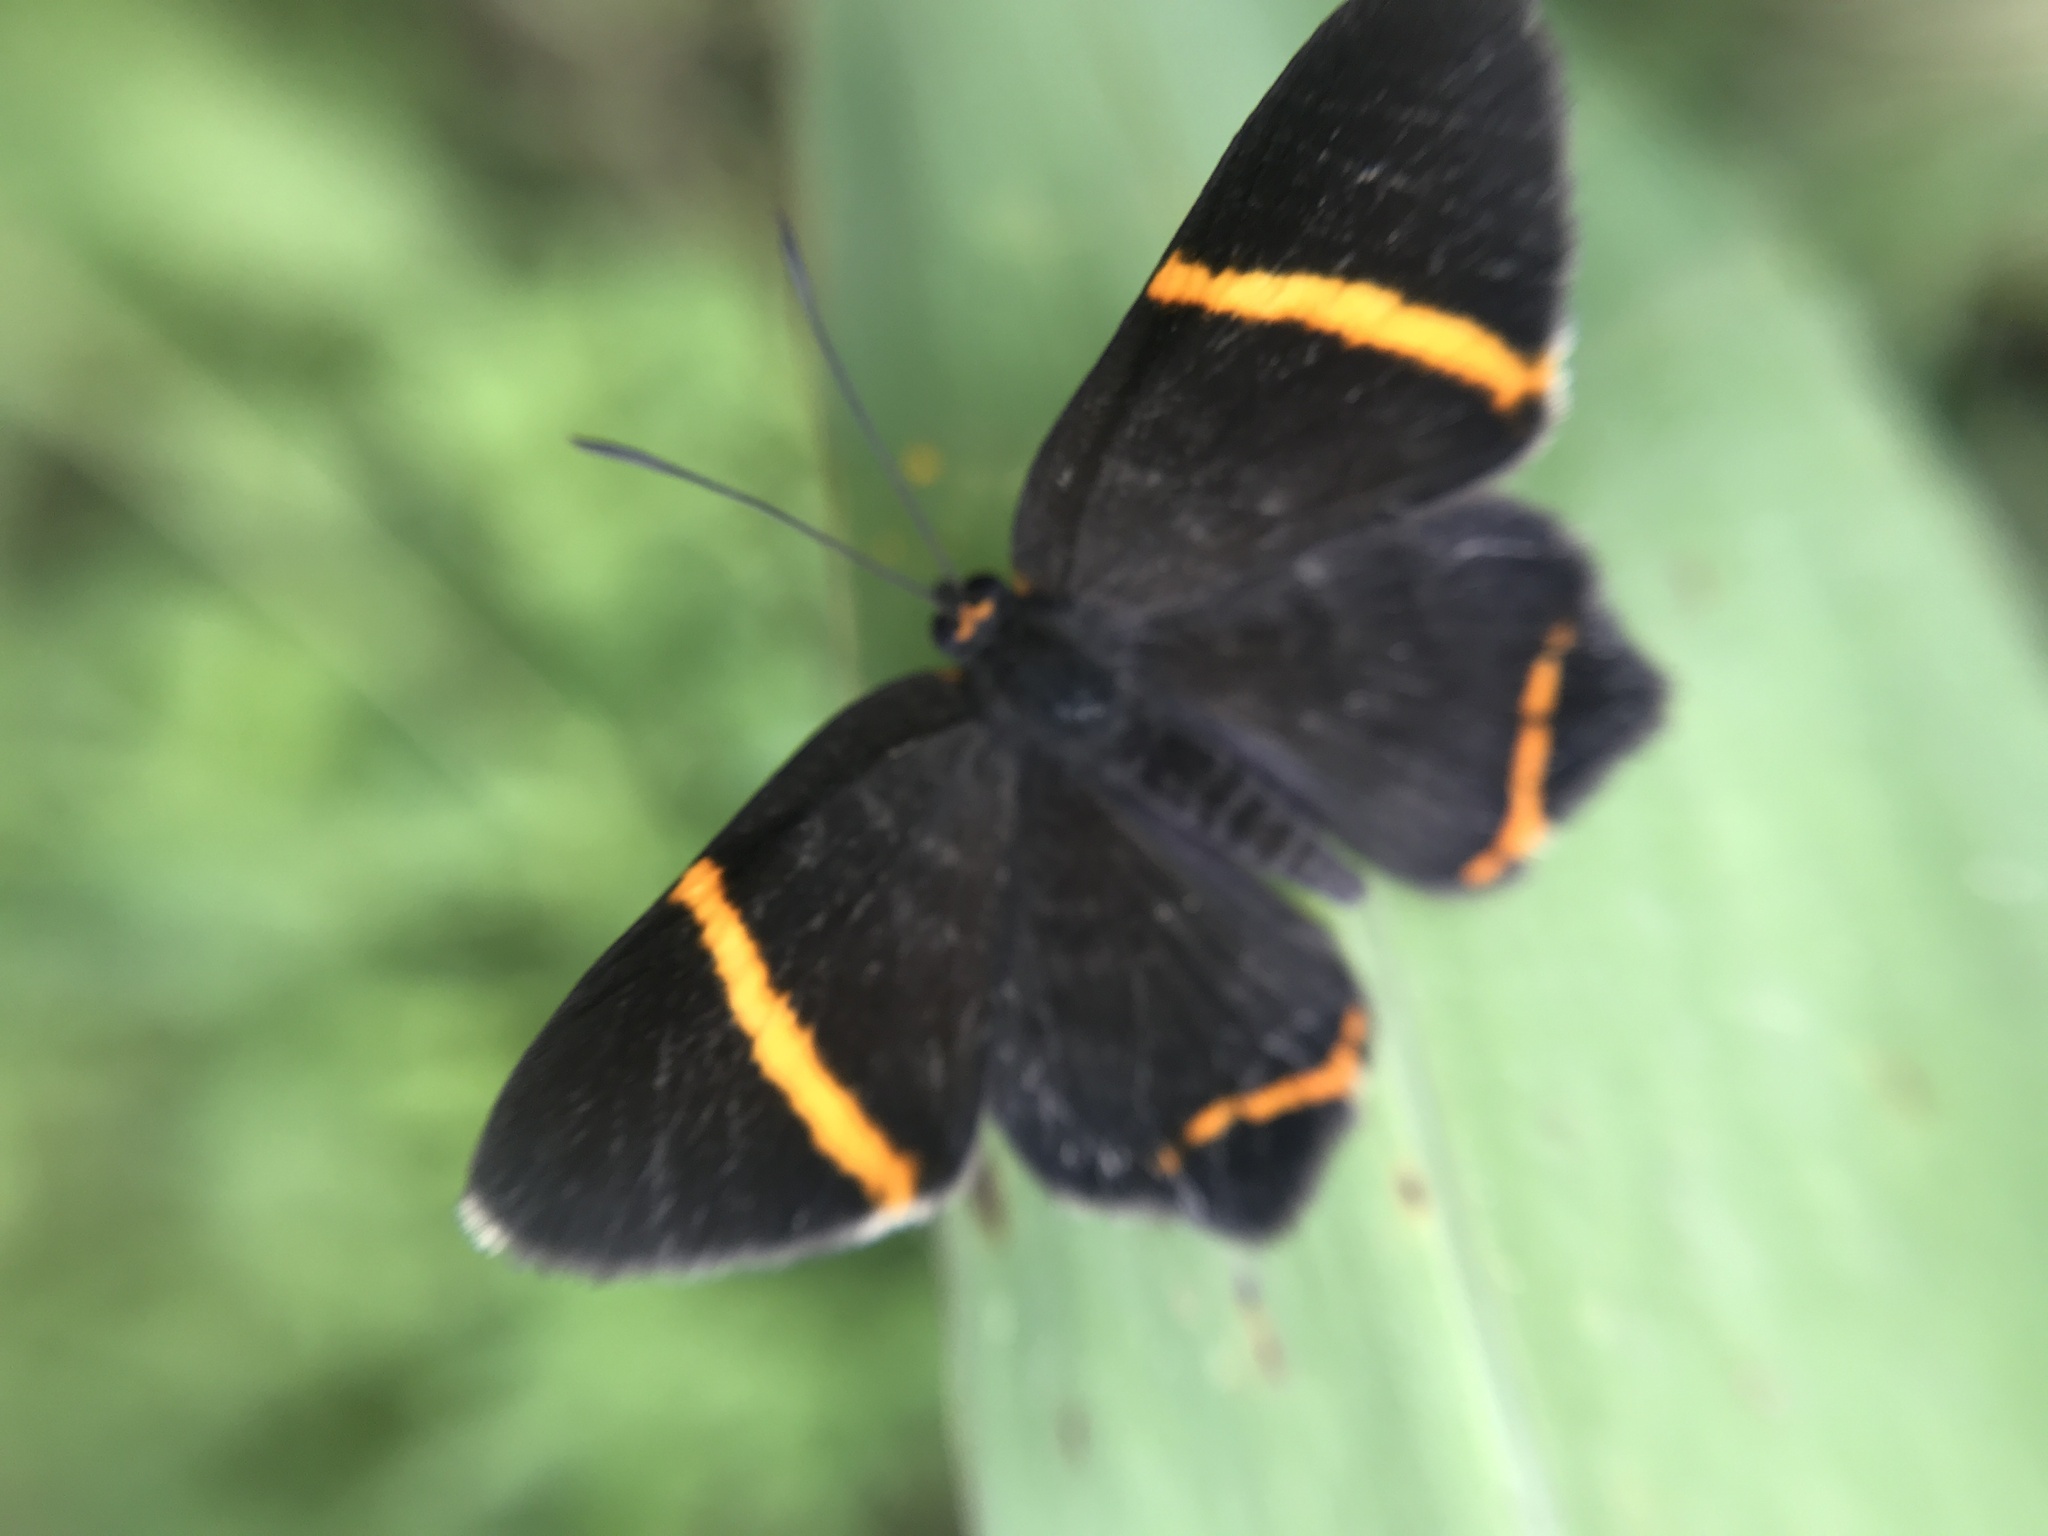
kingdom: Animalia
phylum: Arthropoda
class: Insecta
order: Lepidoptera
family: Riodinidae
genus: Riodina
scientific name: Riodina lysippoides
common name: Little dancer metalmark
